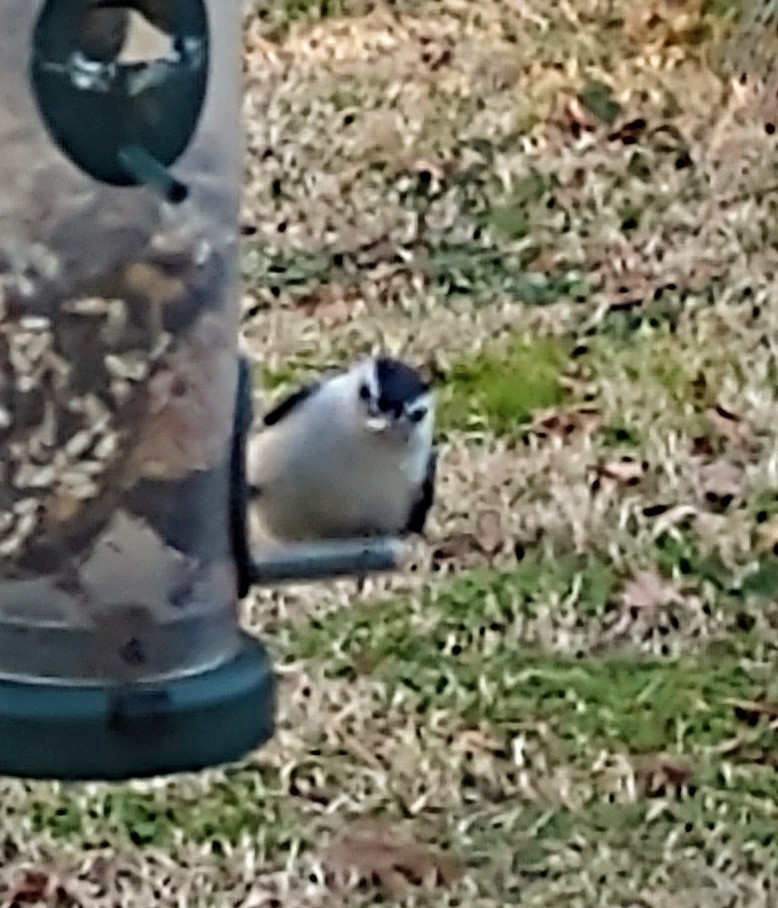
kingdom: Animalia
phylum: Chordata
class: Aves
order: Passeriformes
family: Sittidae
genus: Sitta
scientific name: Sitta carolinensis
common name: White-breasted nuthatch
